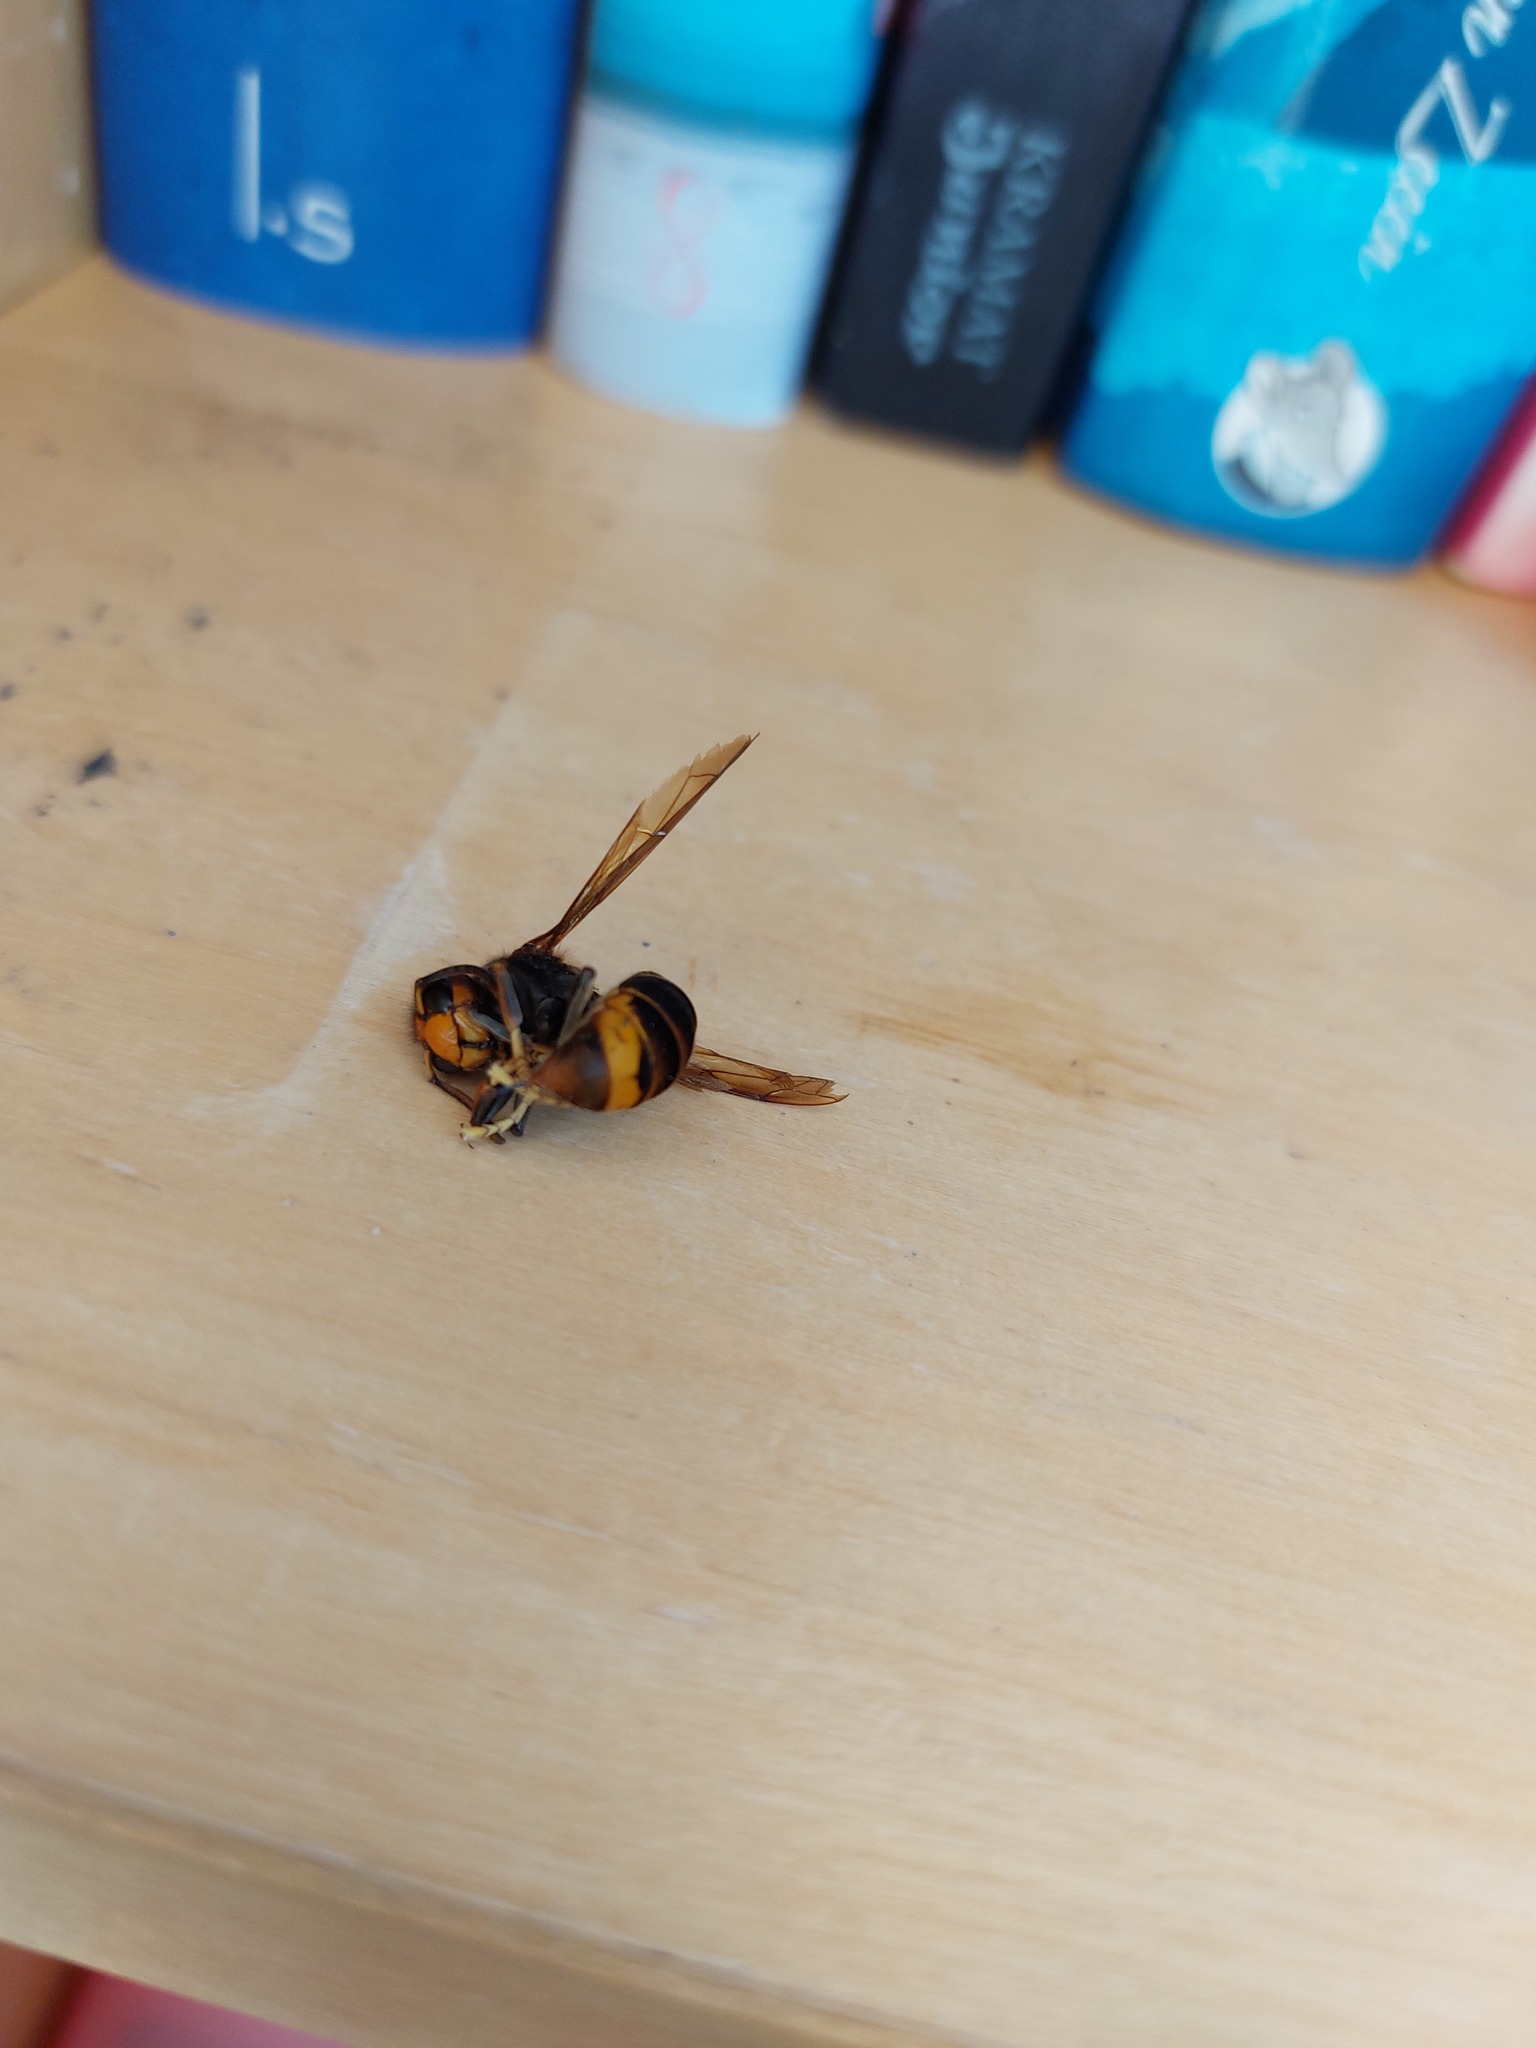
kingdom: Animalia
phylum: Arthropoda
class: Insecta
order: Hymenoptera
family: Vespidae
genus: Vespa
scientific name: Vespa velutina
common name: Asian hornet
